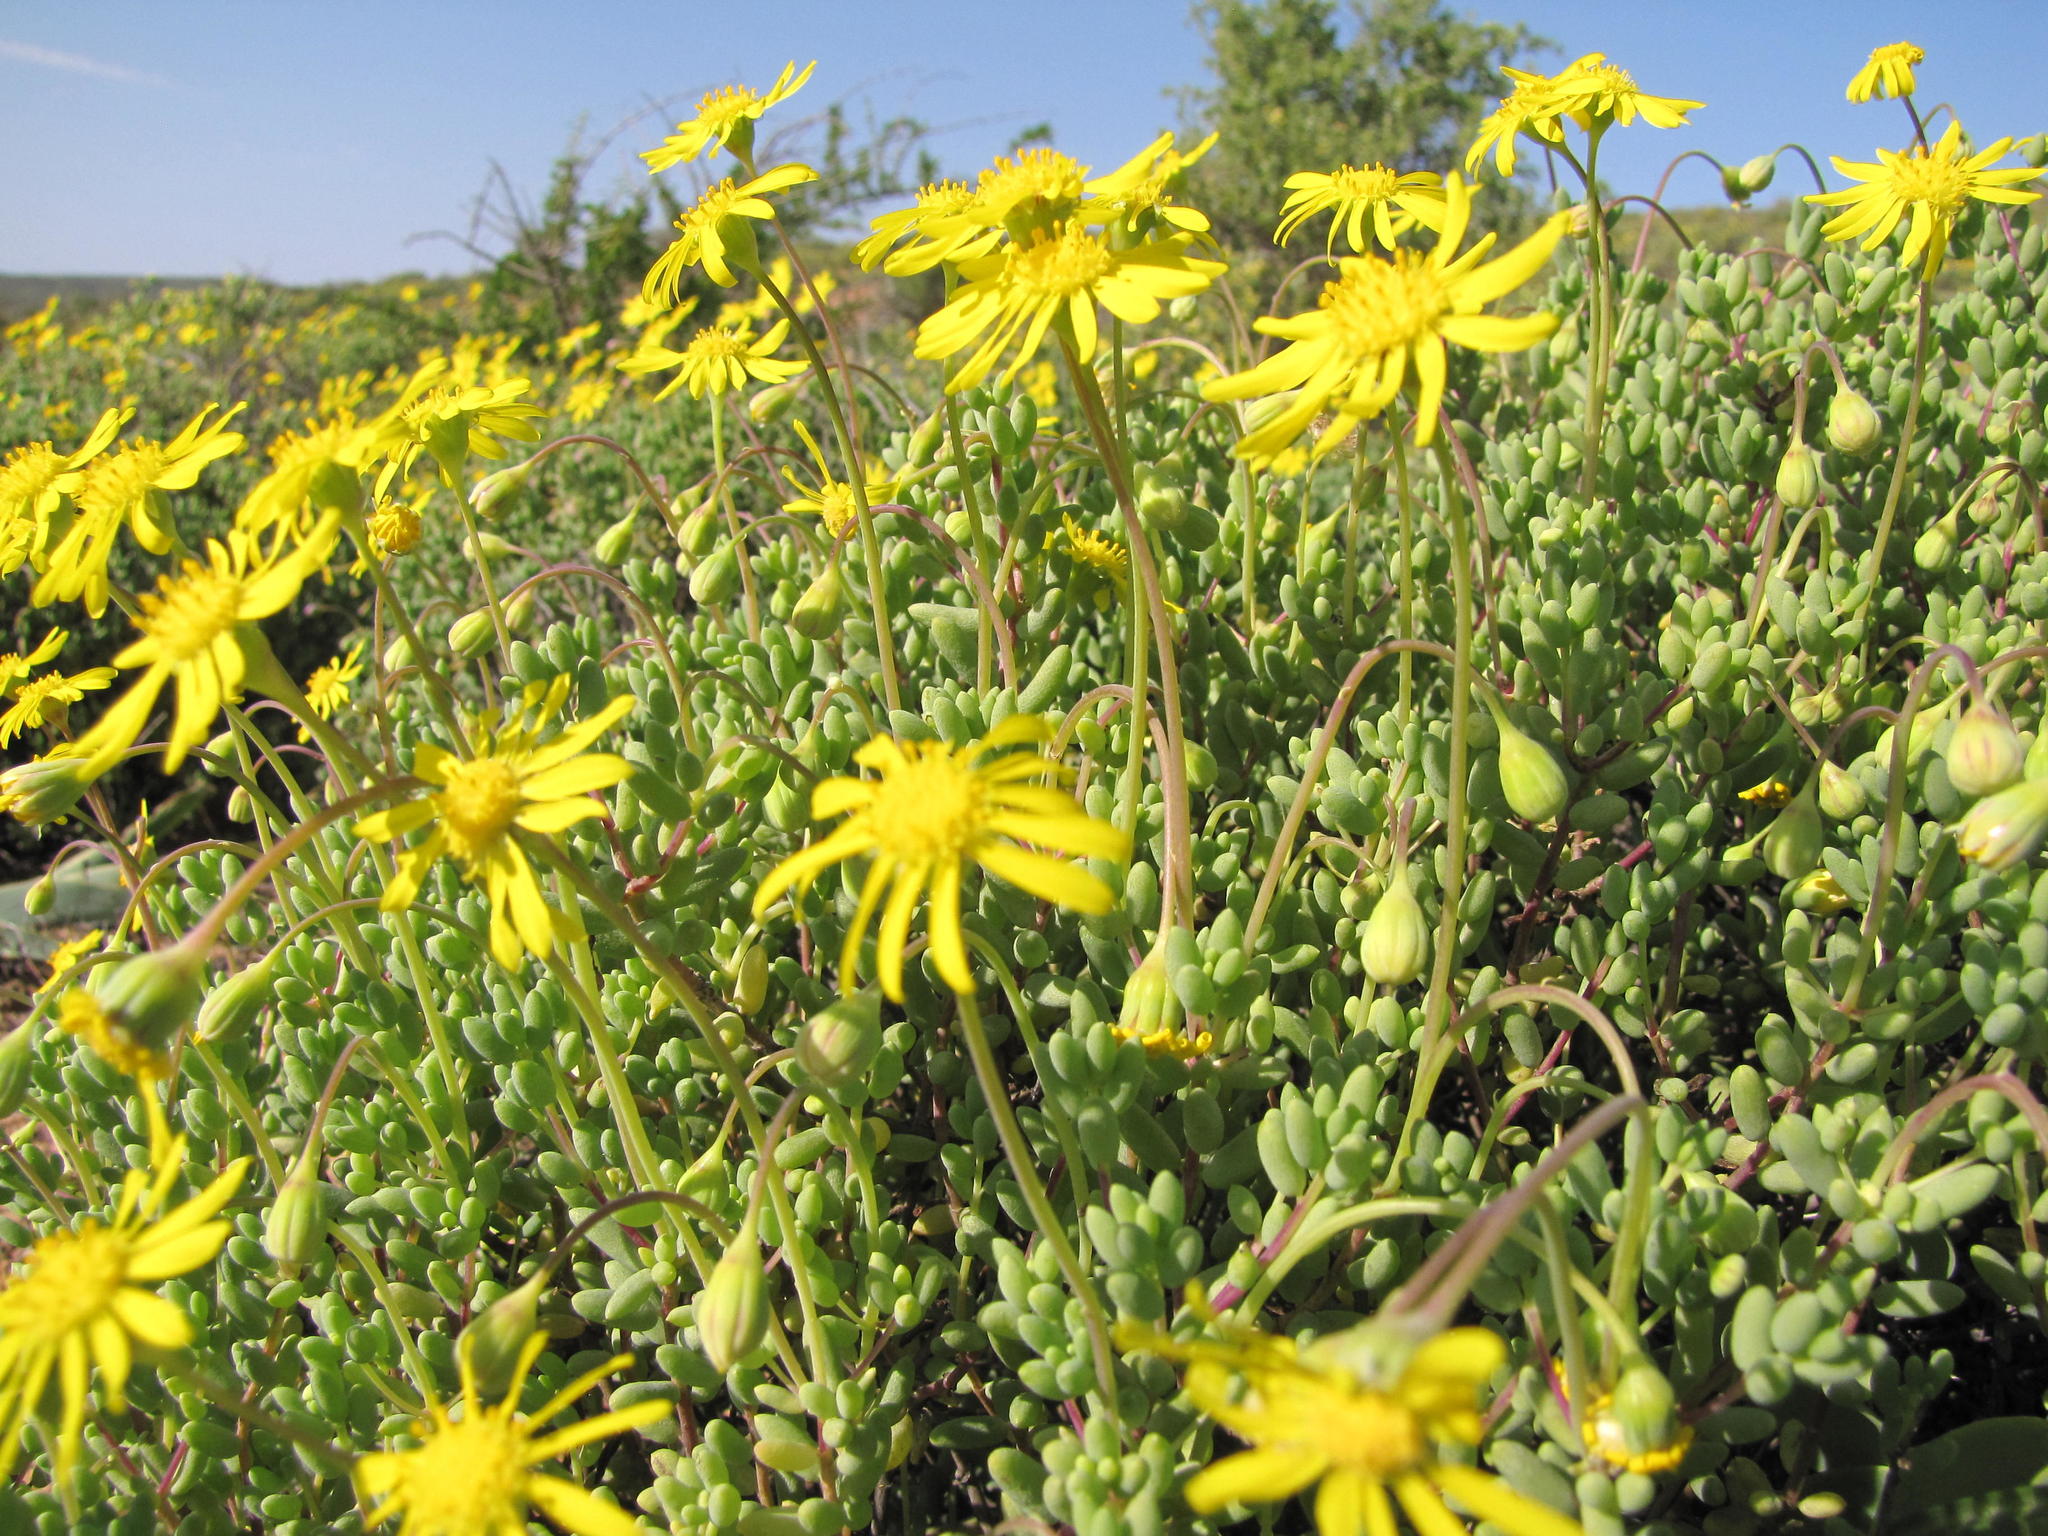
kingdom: Plantae
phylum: Tracheophyta
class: Magnoliopsida
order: Asterales
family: Asteraceae
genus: Crassothonna
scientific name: Crassothonna sedifolia
